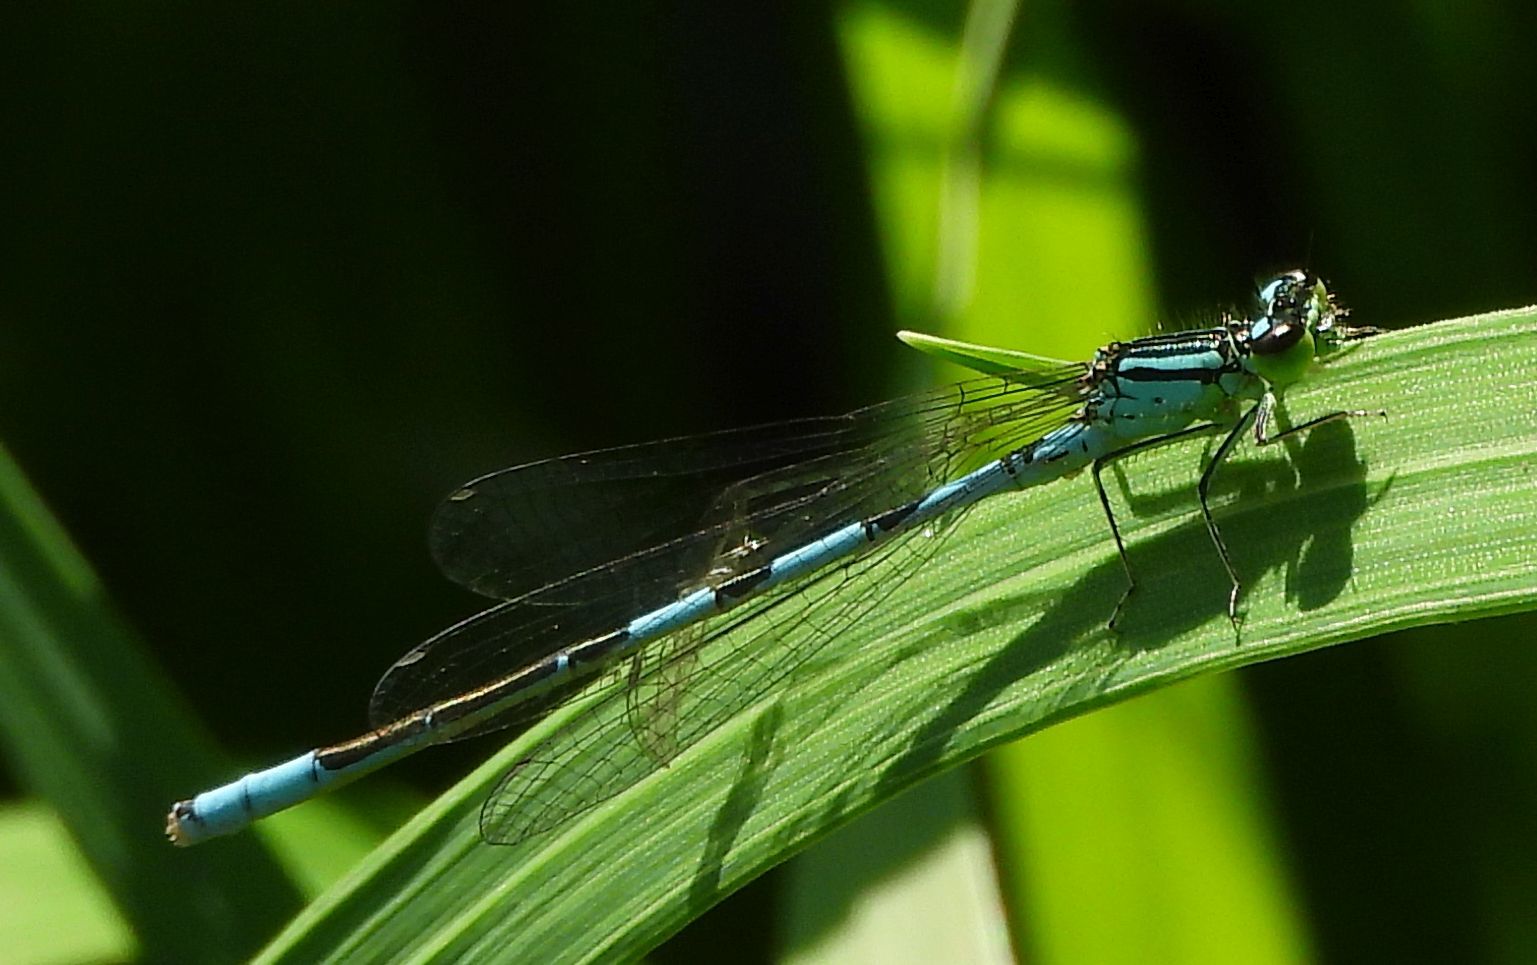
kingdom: Animalia
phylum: Arthropoda
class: Insecta
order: Odonata
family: Coenagrionidae
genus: Coenagrion
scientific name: Coenagrion resolutum
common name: Taiga bluet
